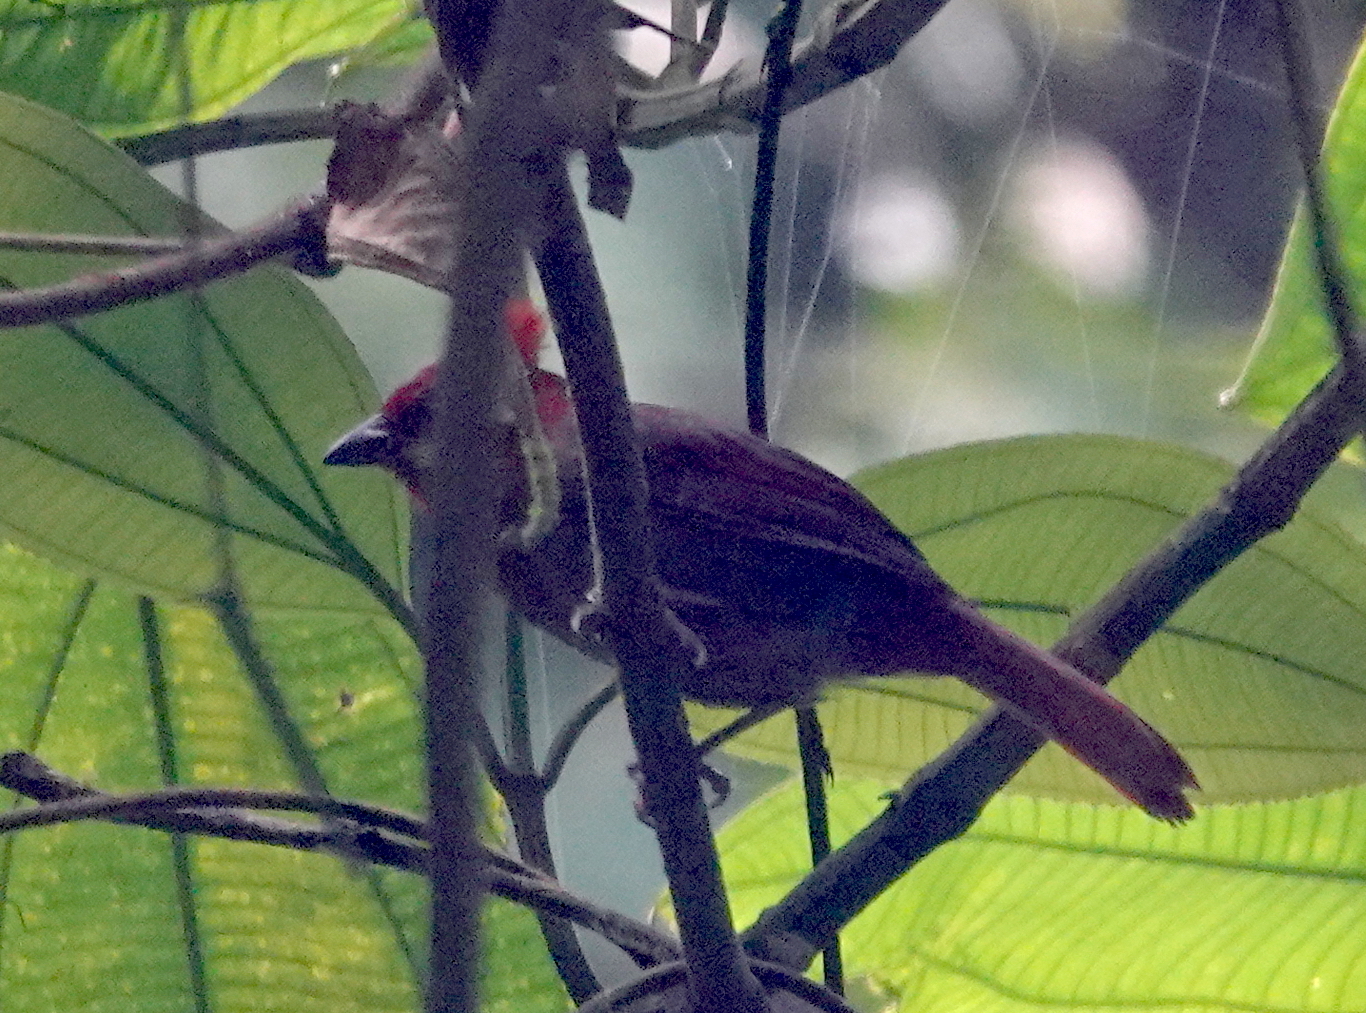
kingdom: Animalia
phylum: Chordata
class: Aves
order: Passeriformes
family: Cardinalidae
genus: Habia
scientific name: Habia cristata
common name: Crested ant tanager
